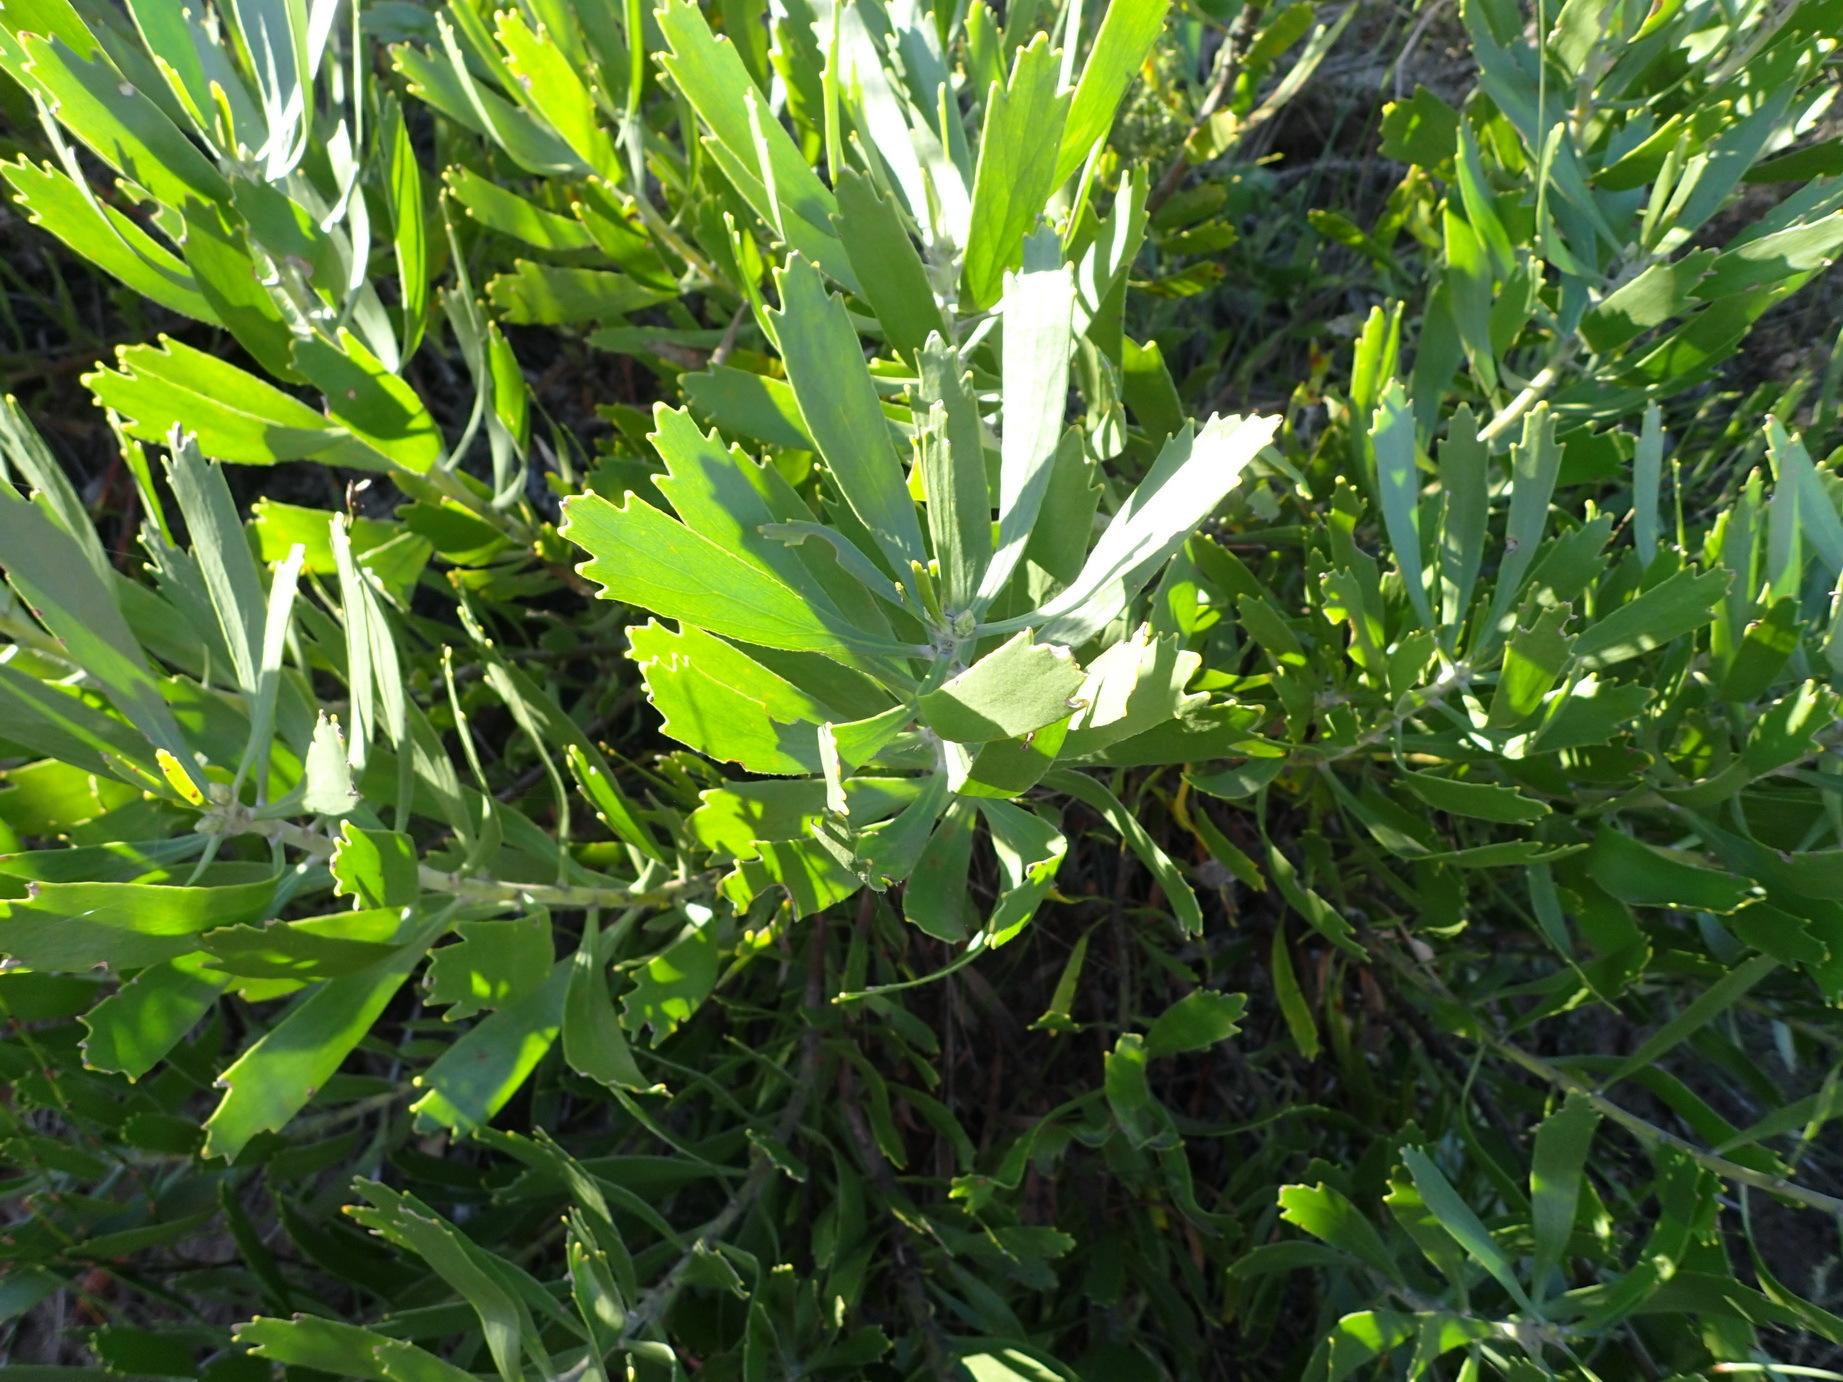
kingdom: Plantae
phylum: Tracheophyta
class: Magnoliopsida
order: Proteales
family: Proteaceae
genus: Leucospermum
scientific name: Leucospermum cuneiforme
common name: Common pincushion
